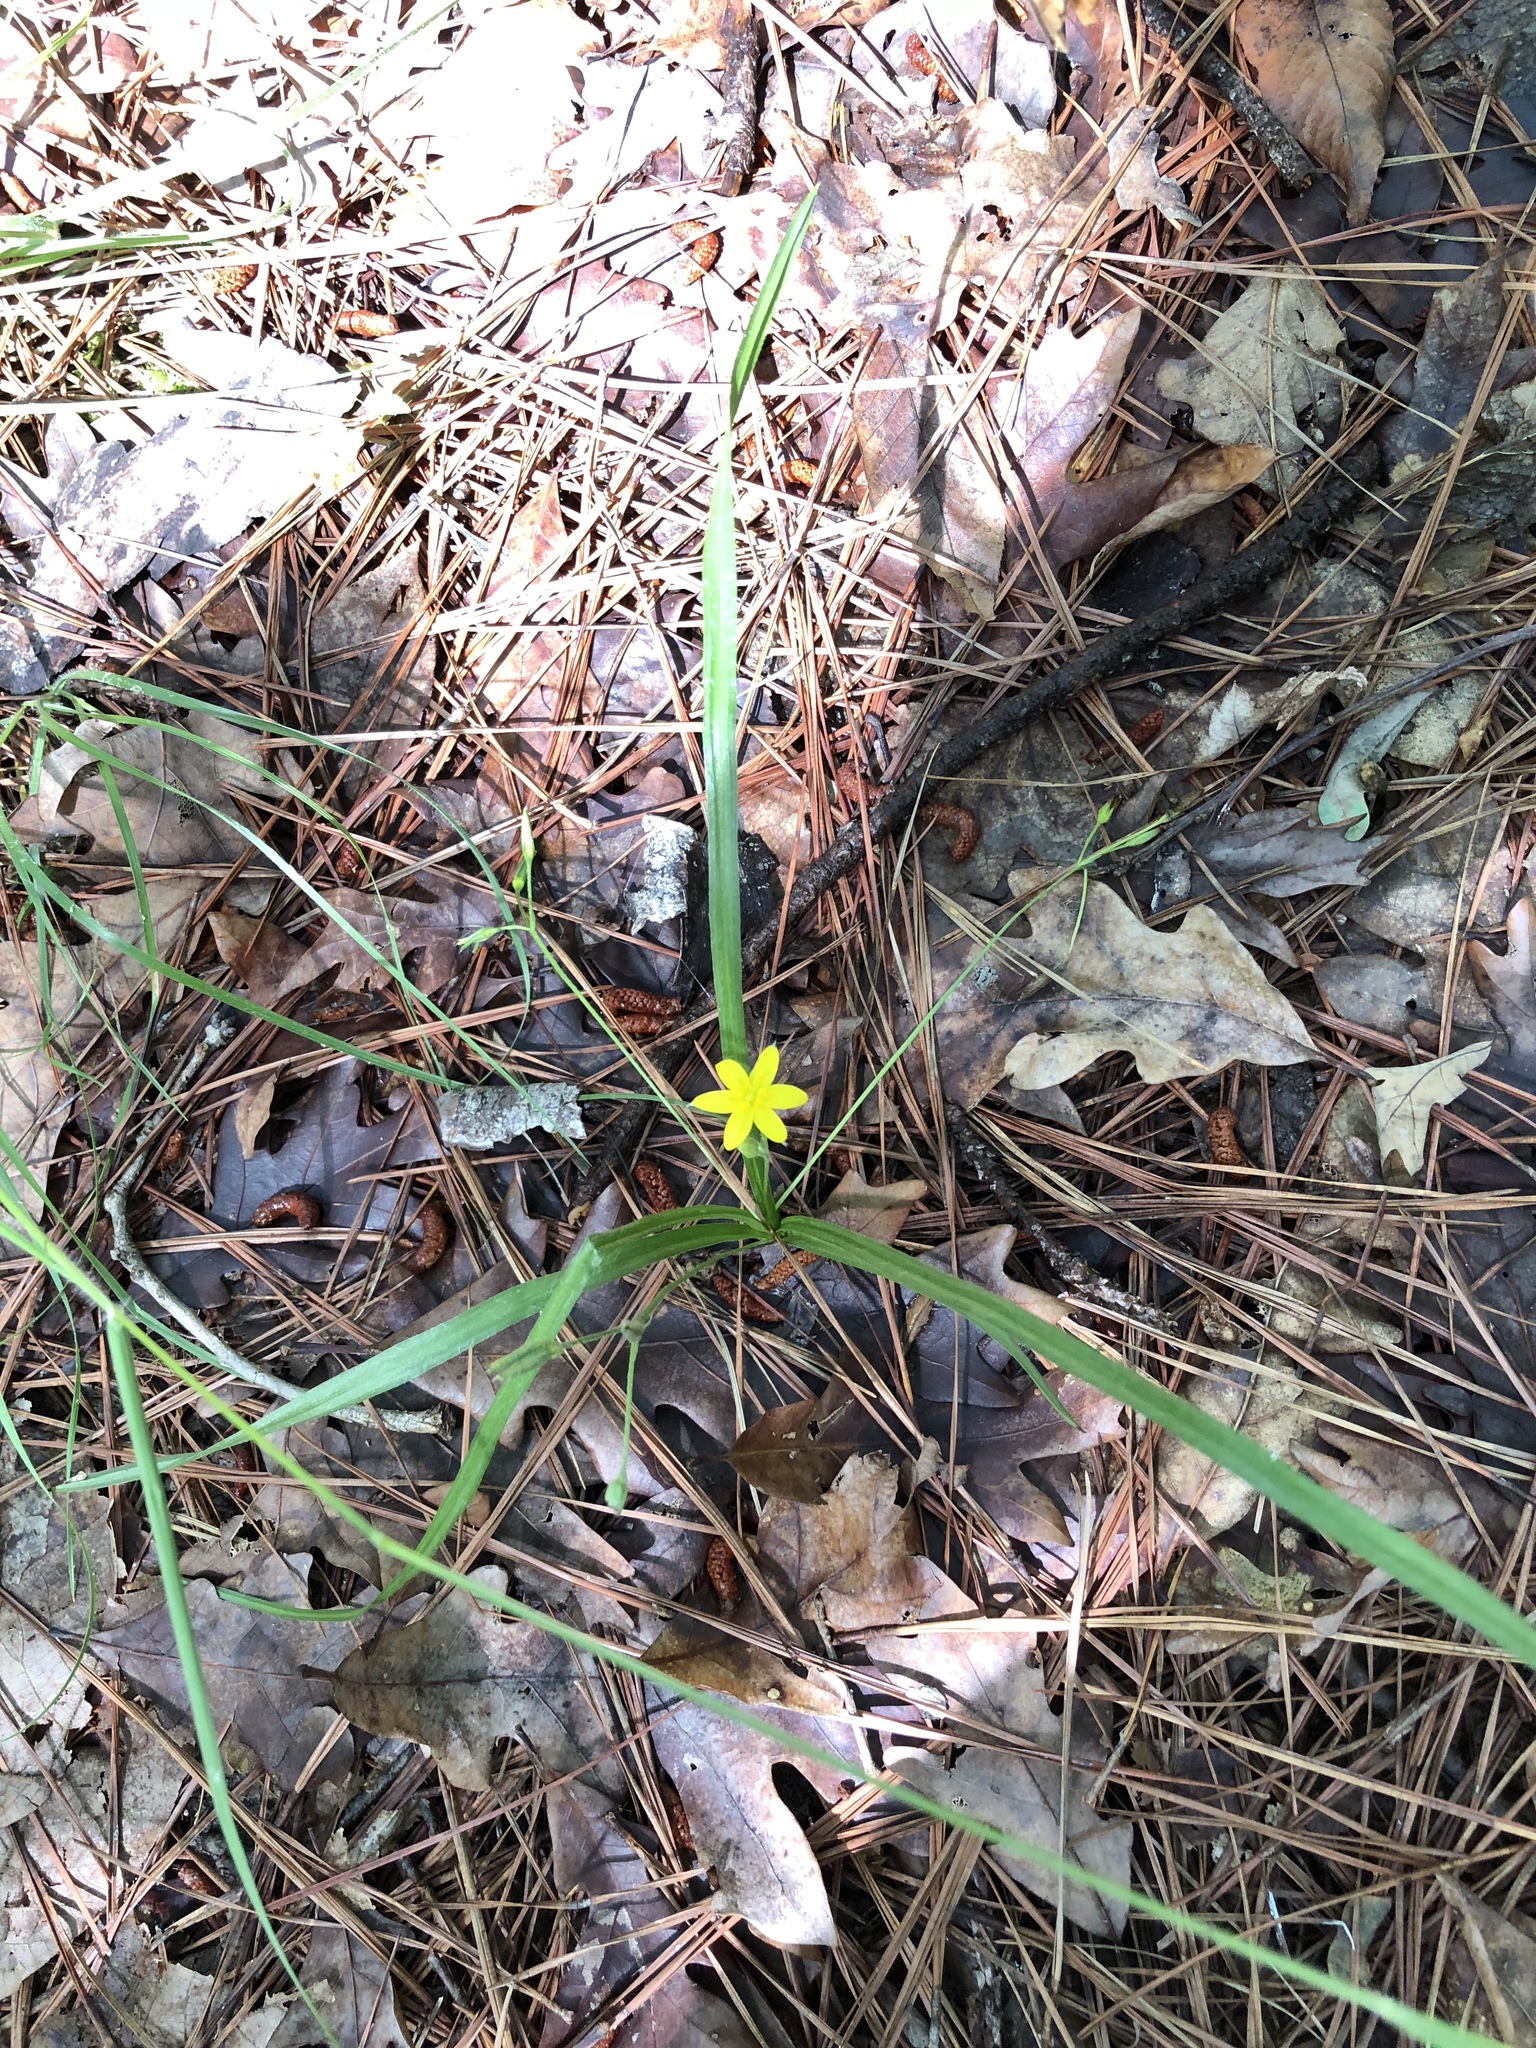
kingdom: Plantae
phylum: Tracheophyta
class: Liliopsida
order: Asparagales
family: Hypoxidaceae
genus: Hypoxis
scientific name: Hypoxis hirsuta
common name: Common goldstar
